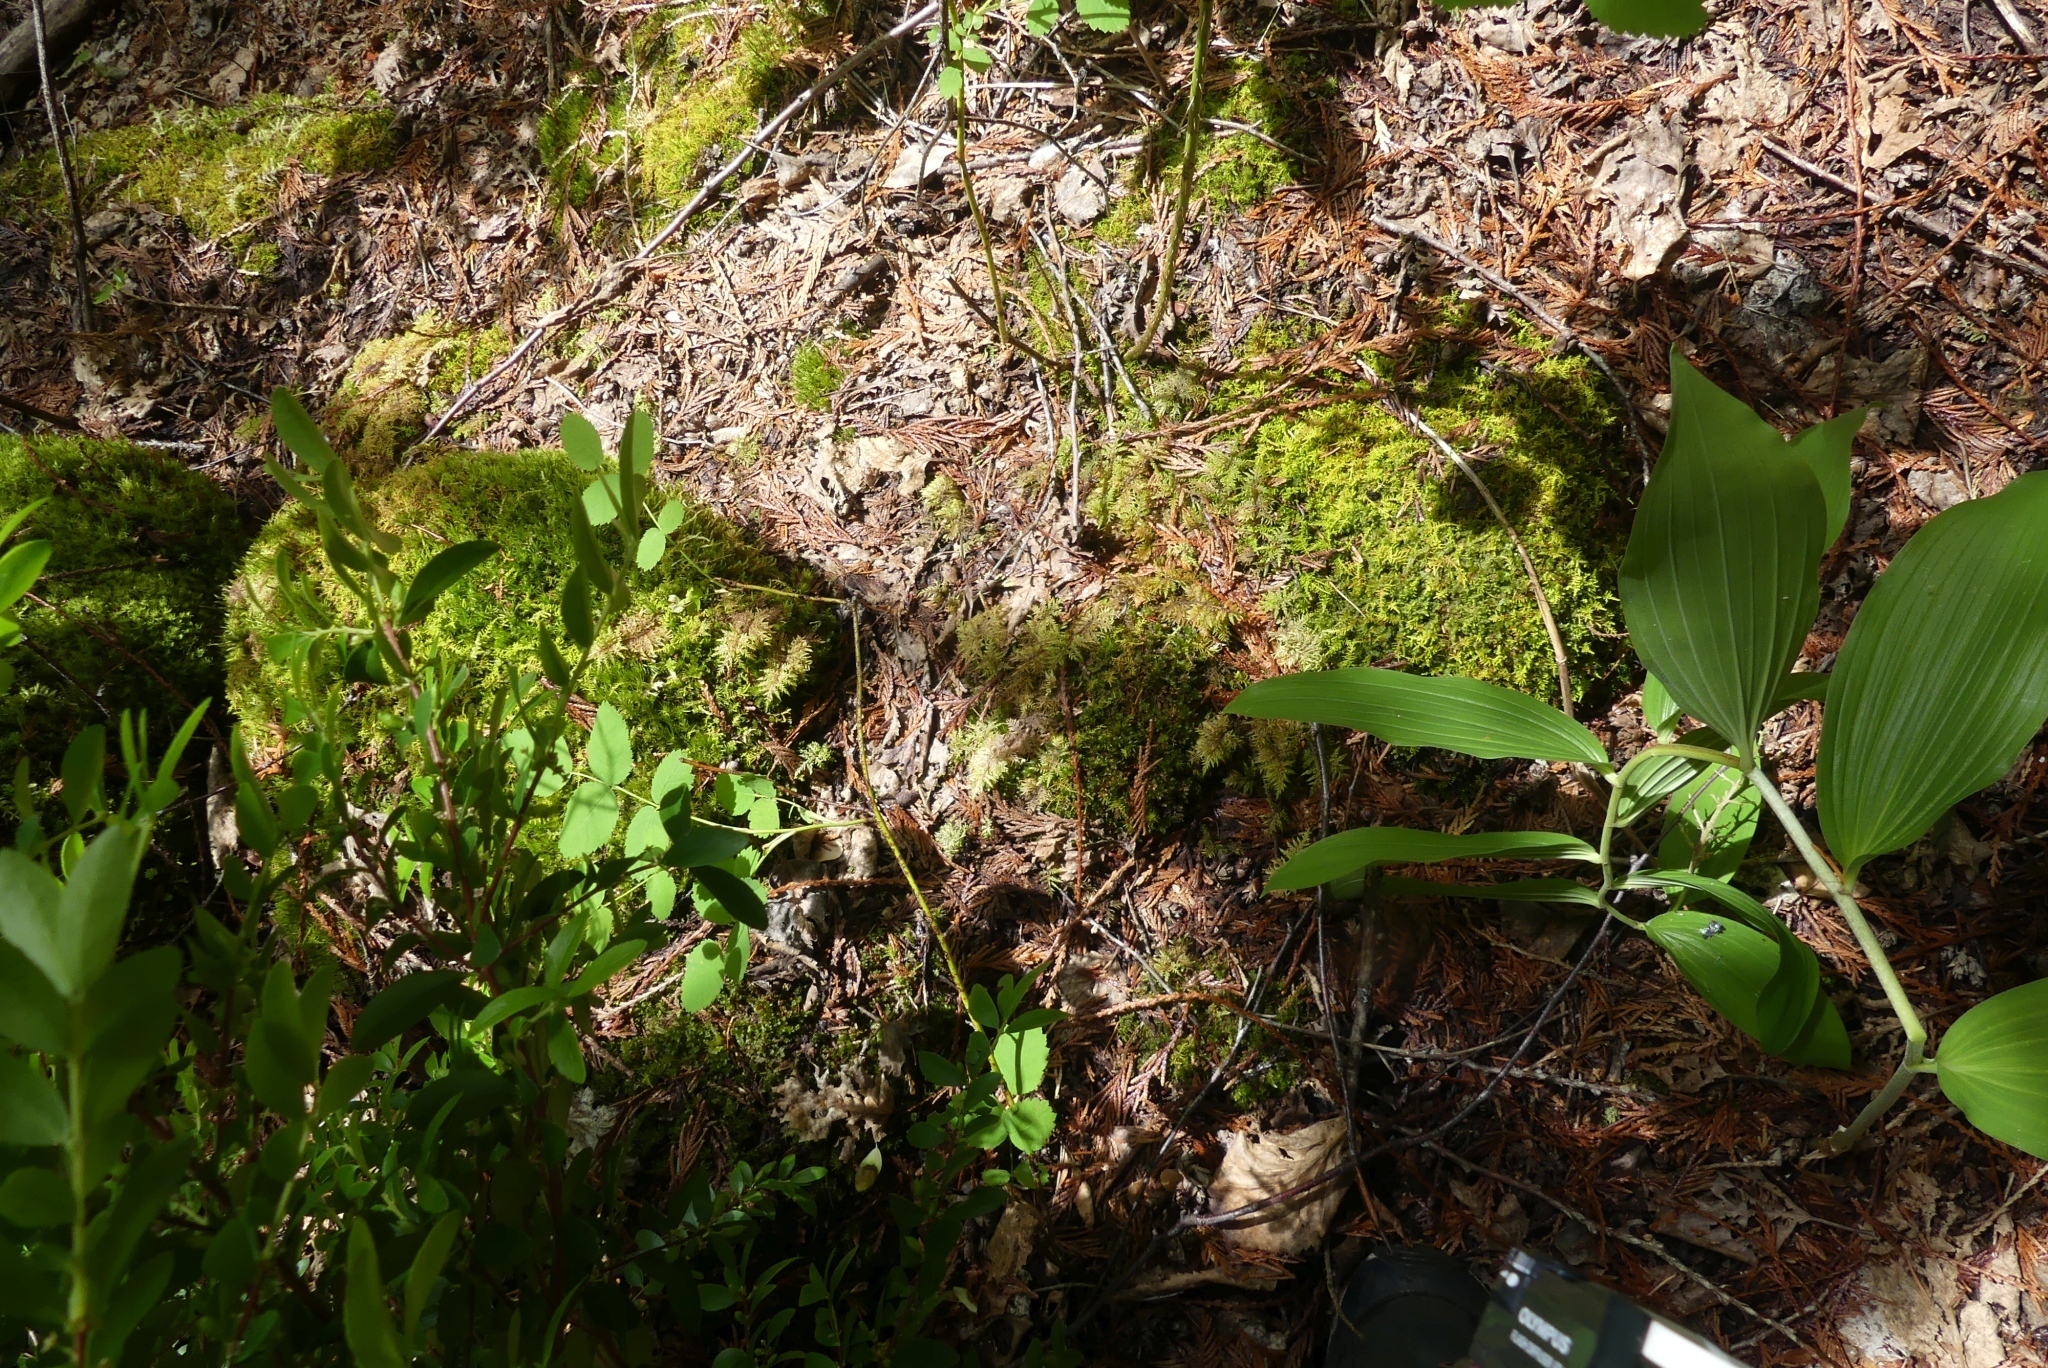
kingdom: Plantae
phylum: Bryophyta
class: Bryopsida
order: Hypnales
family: Hylocomiaceae
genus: Hylocomium
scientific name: Hylocomium splendens
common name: Stairstep moss
